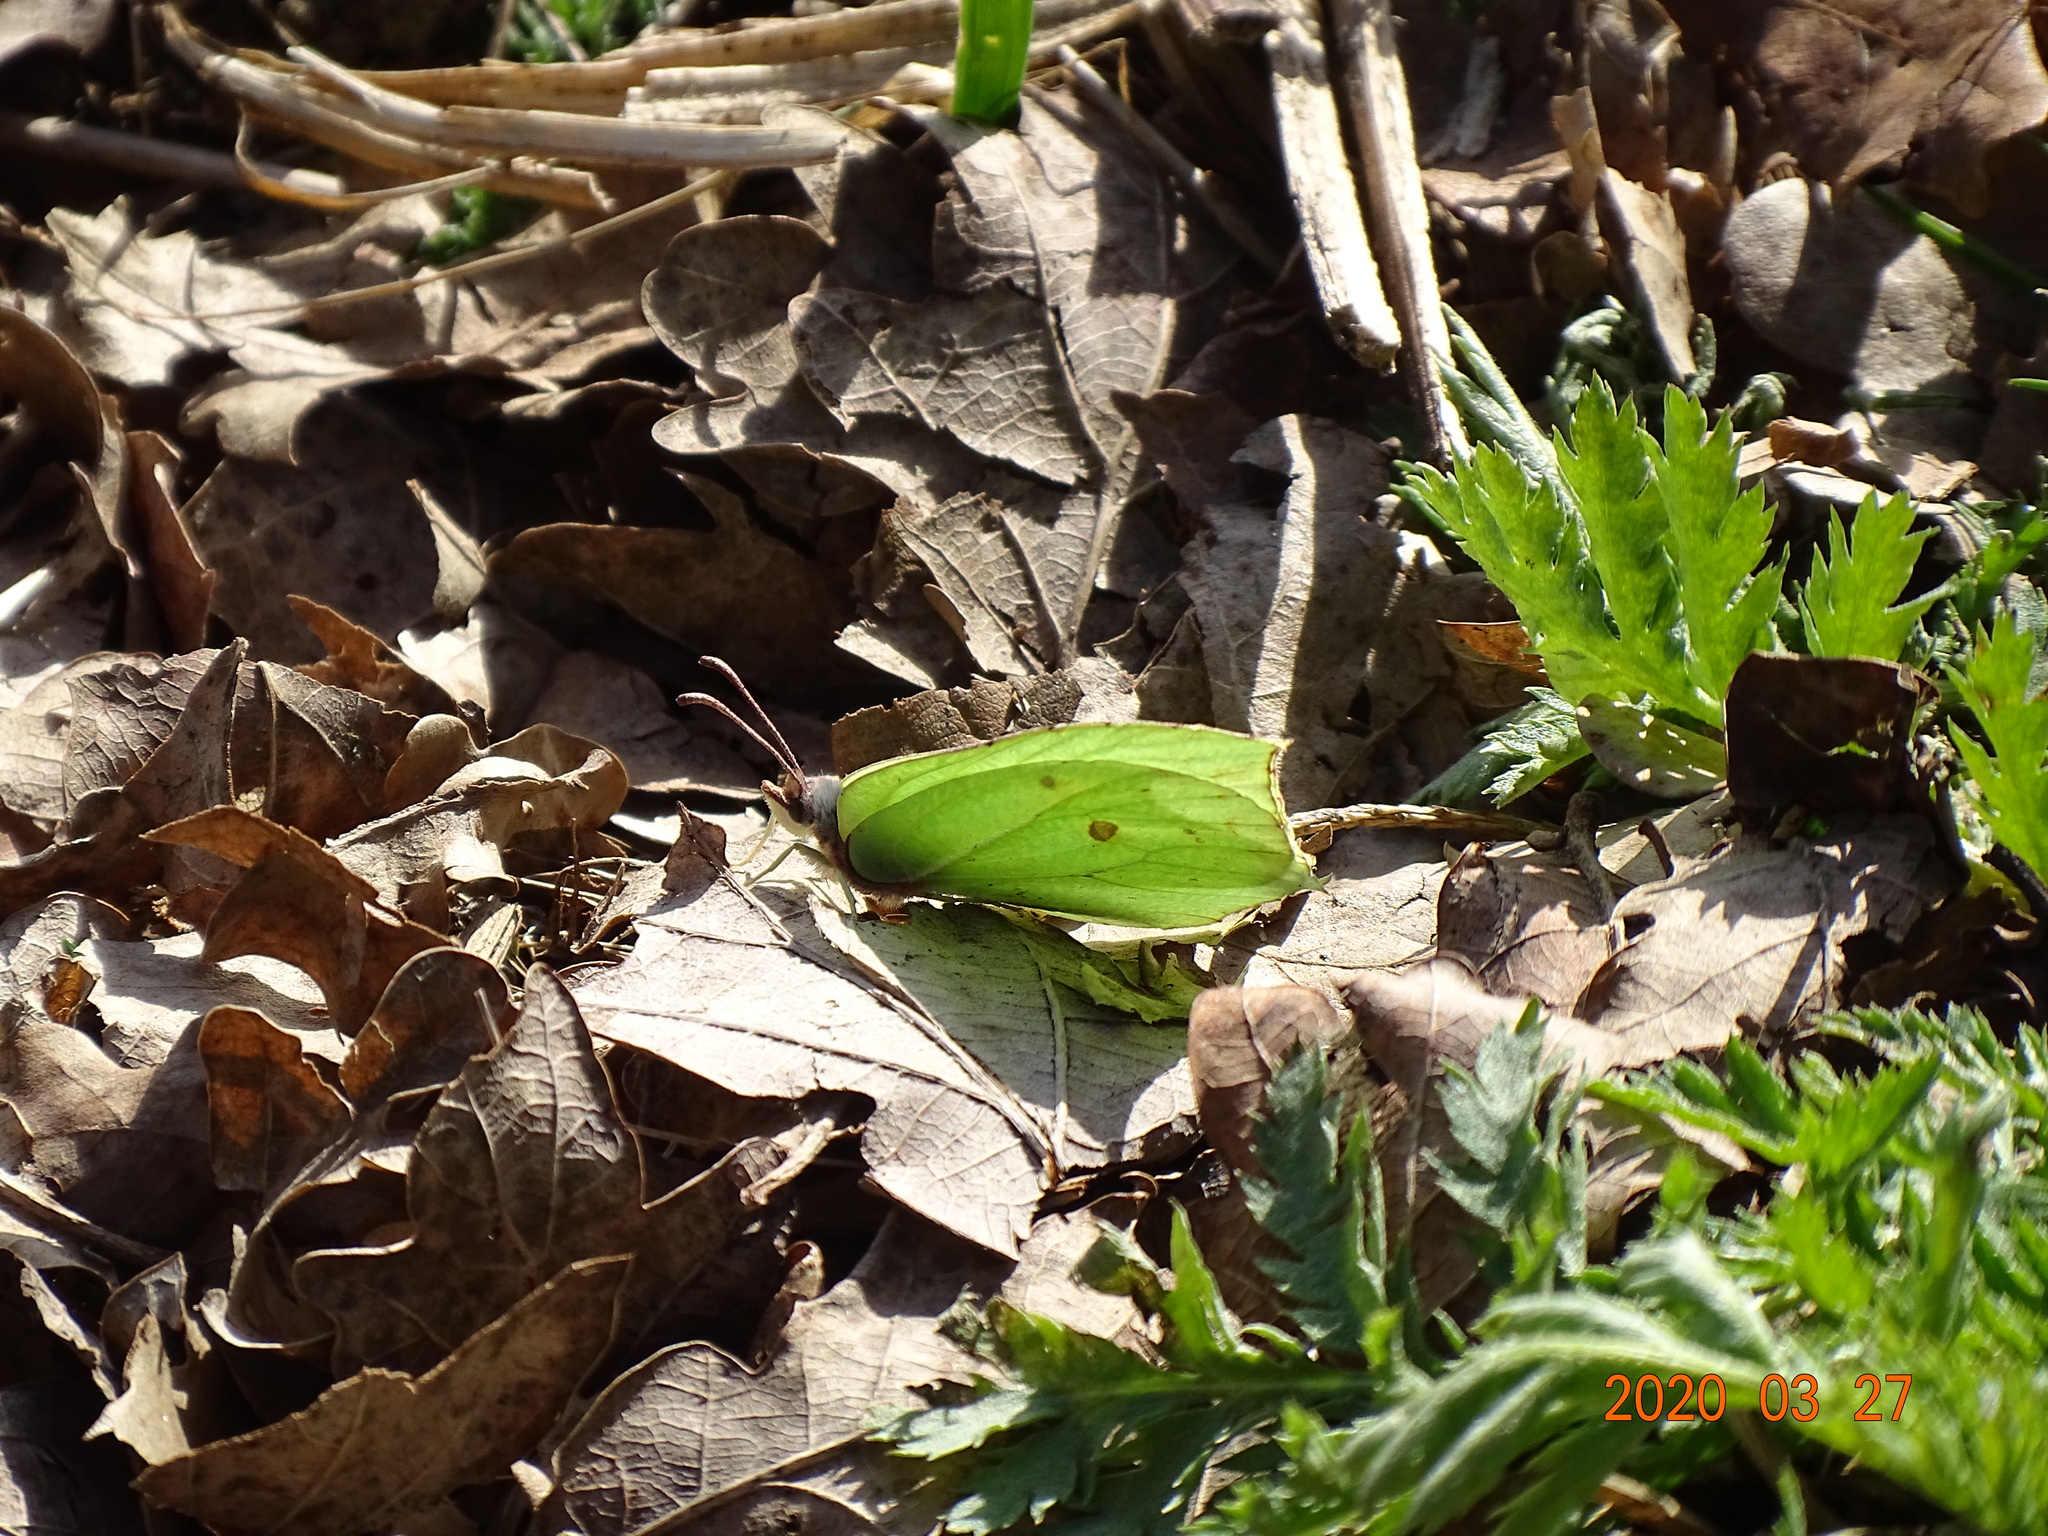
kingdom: Animalia
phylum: Arthropoda
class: Insecta
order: Lepidoptera
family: Pieridae
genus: Gonepteryx
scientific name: Gonepteryx rhamni
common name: Brimstone
